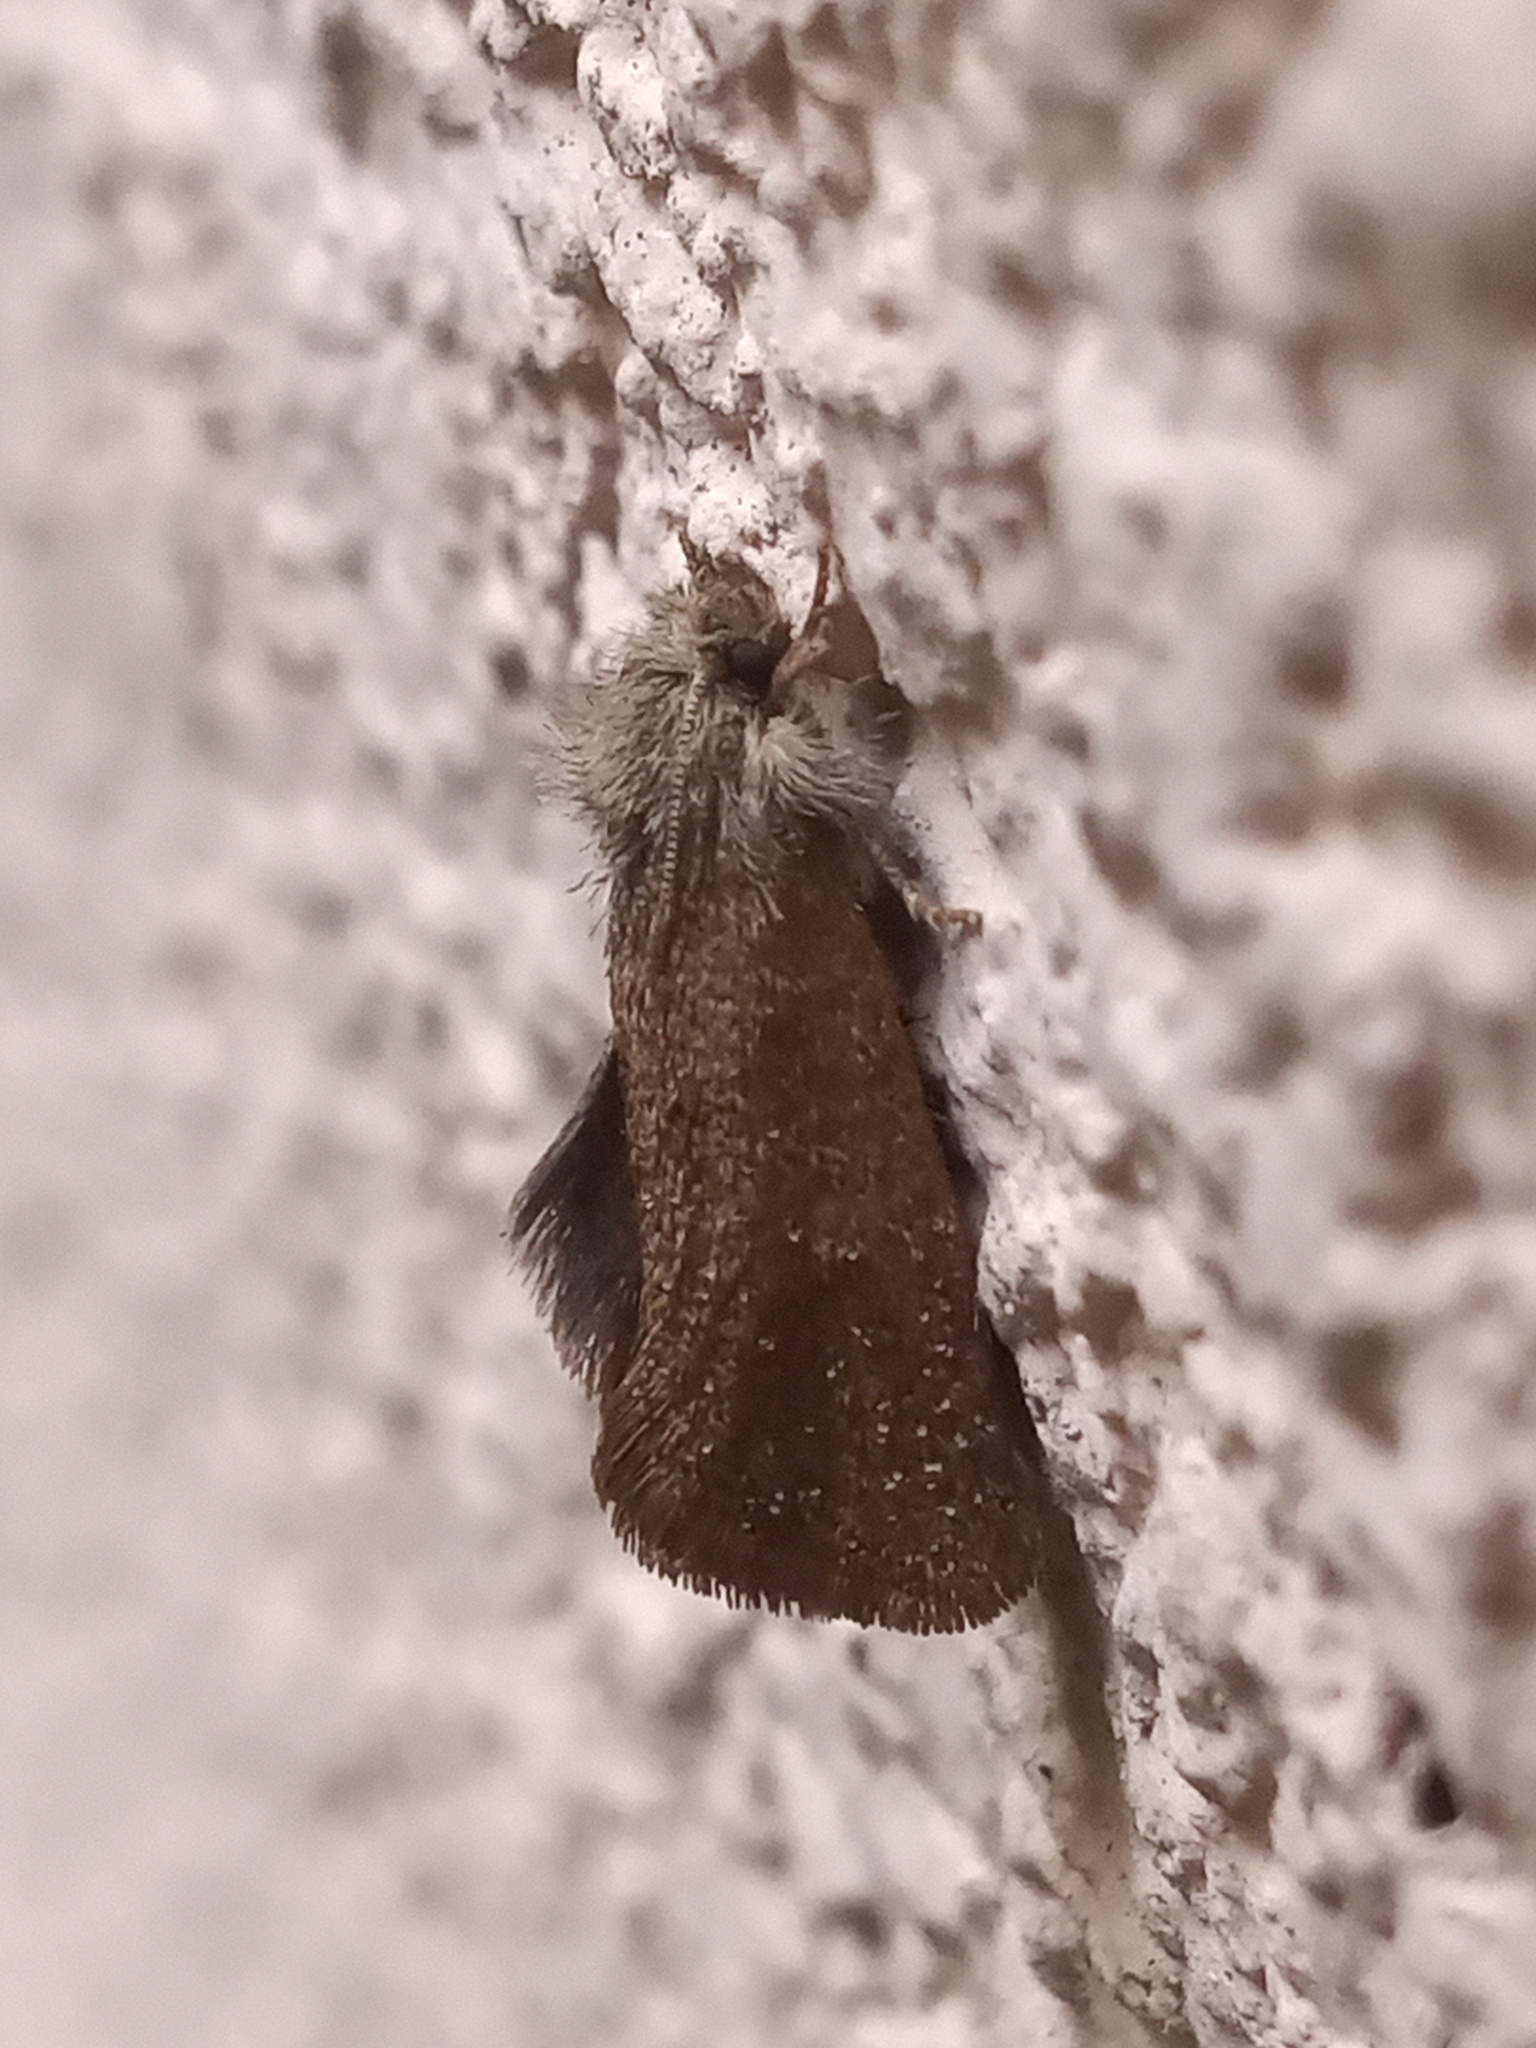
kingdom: Animalia
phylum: Arthropoda
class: Insecta
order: Lepidoptera
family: Tineidae
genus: Acrolophus
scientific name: Acrolophus heppneri
